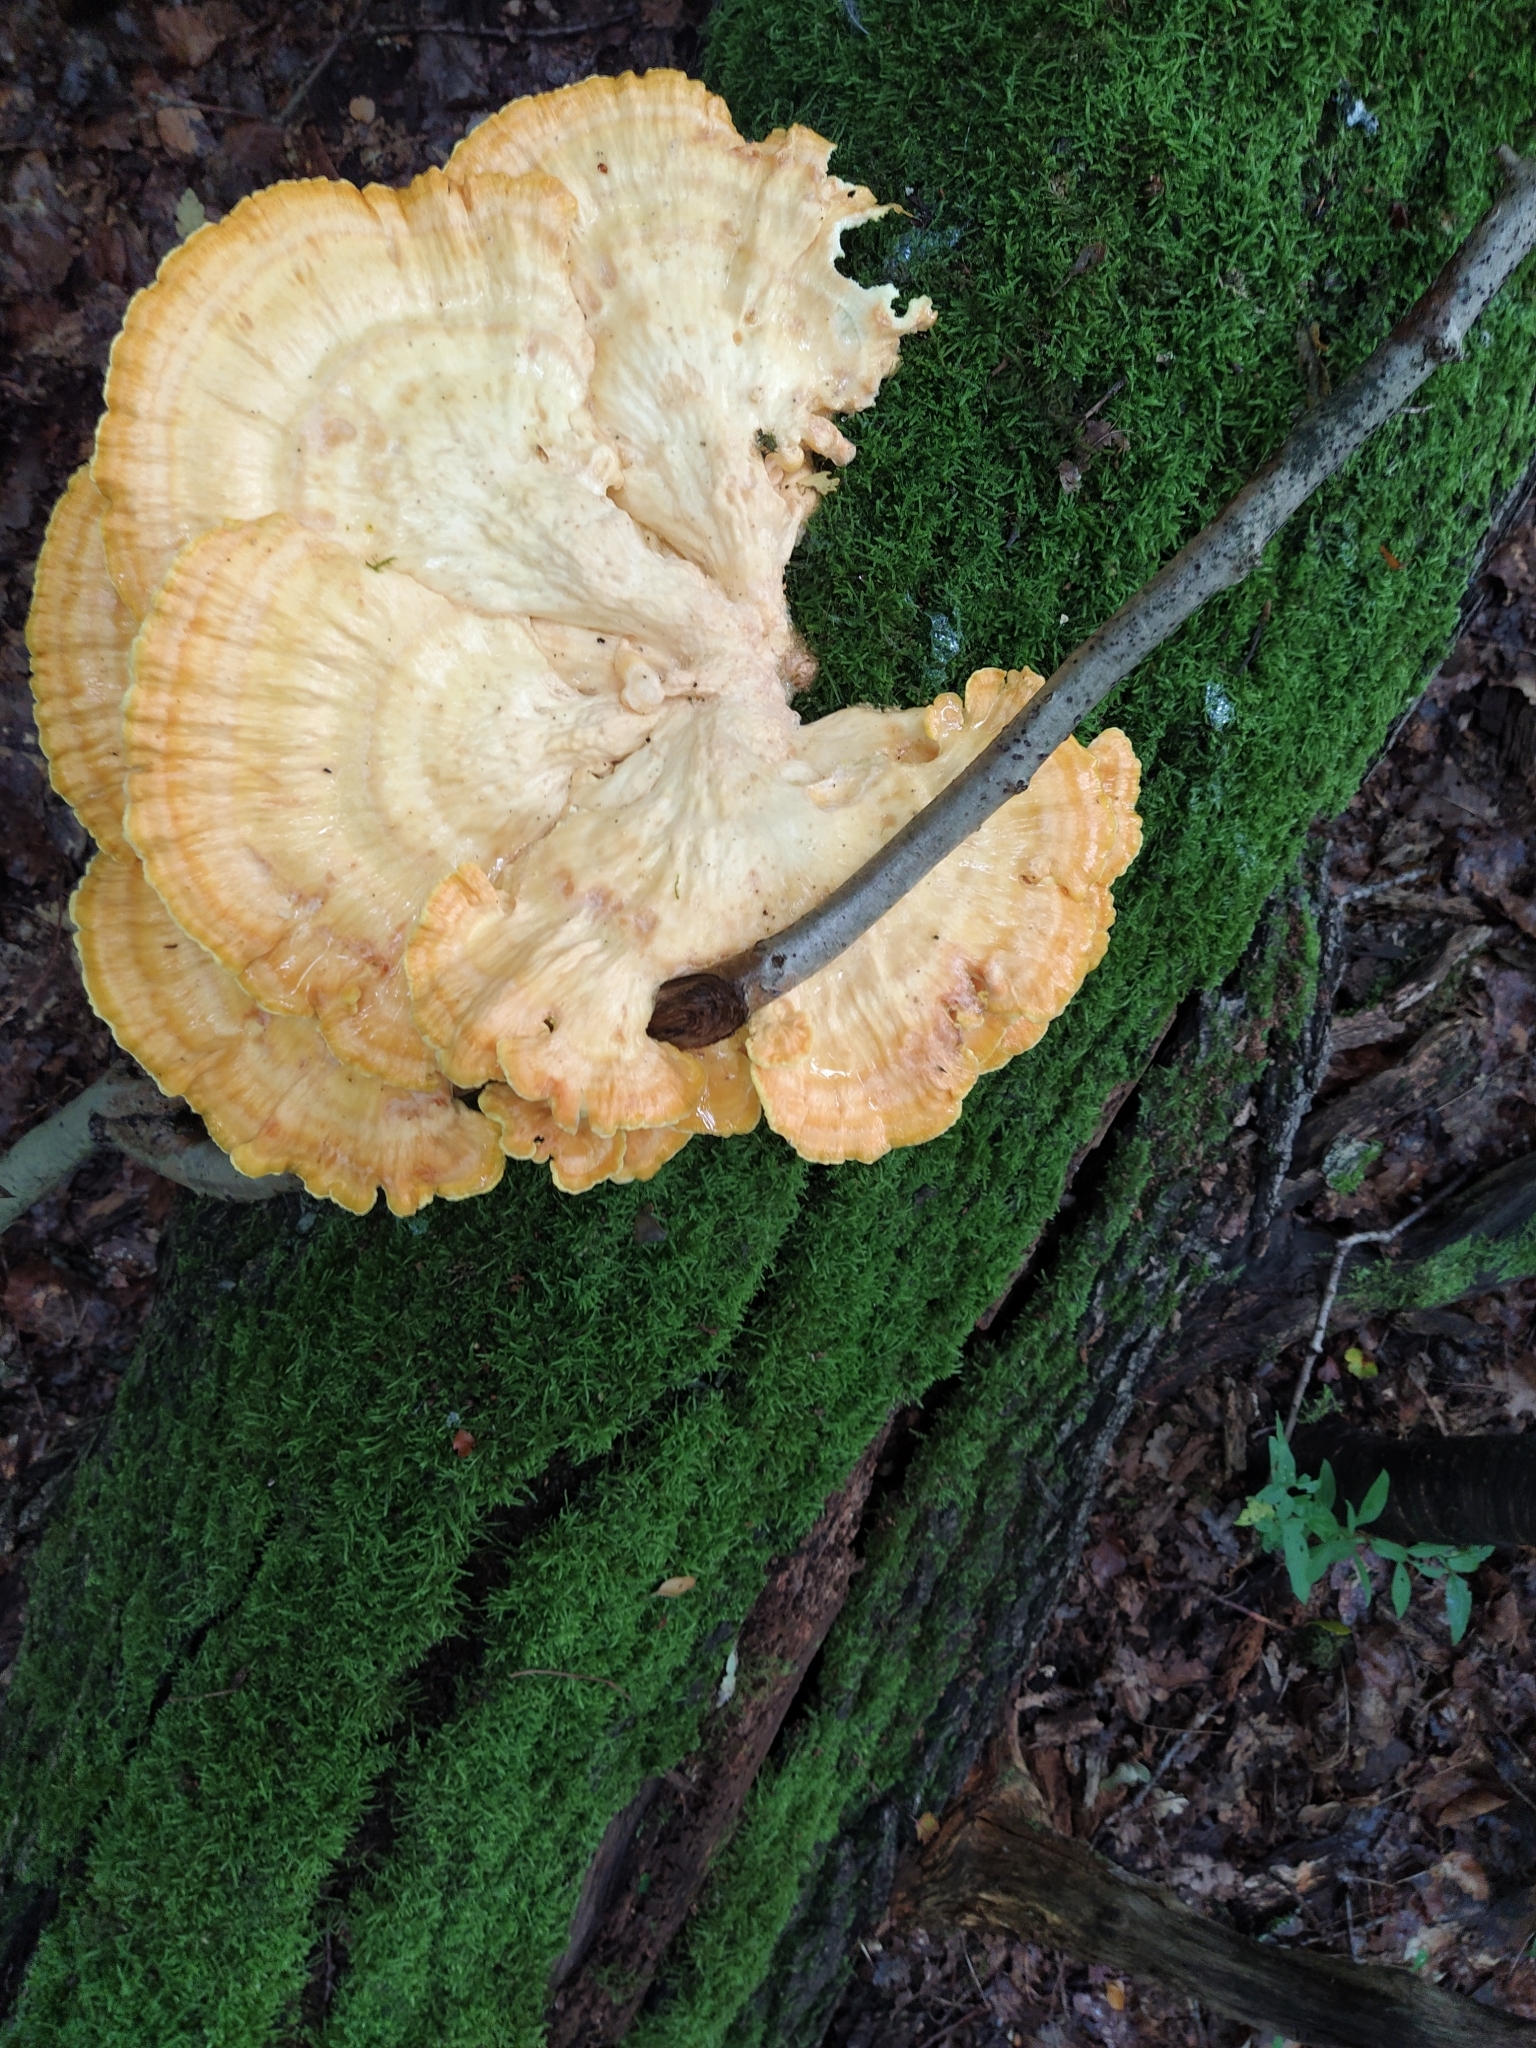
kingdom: Fungi
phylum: Basidiomycota
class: Agaricomycetes
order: Polyporales
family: Laetiporaceae
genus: Laetiporus
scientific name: Laetiporus sulphureus
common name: Chicken of the woods
